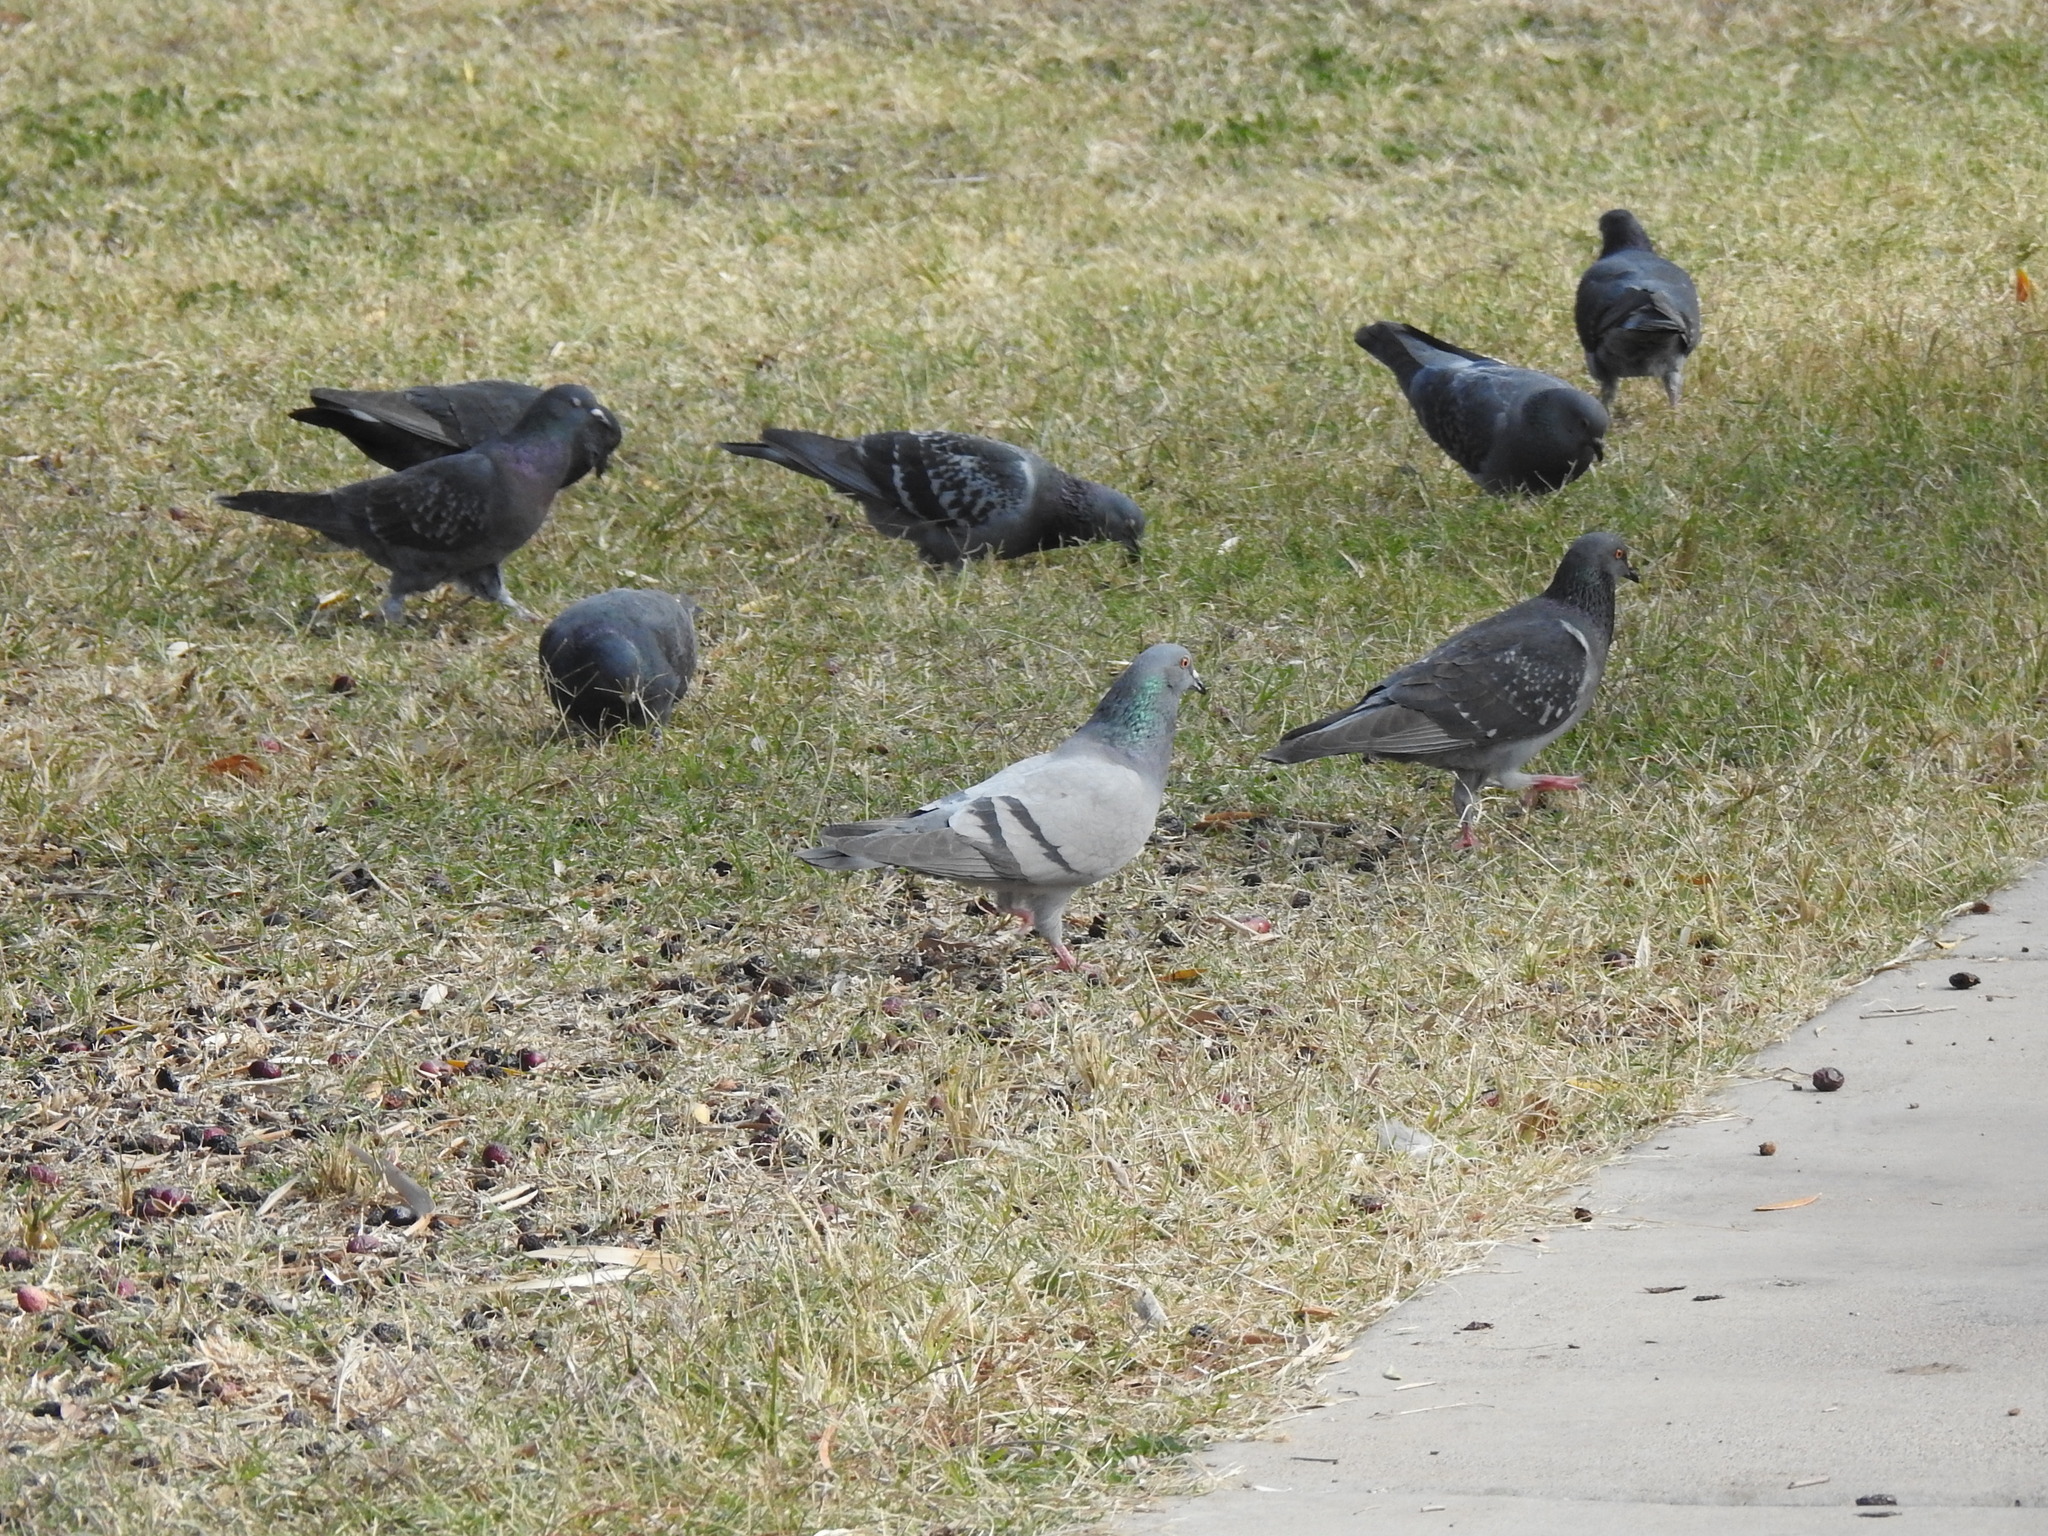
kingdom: Animalia
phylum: Chordata
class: Aves
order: Columbiformes
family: Columbidae
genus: Columba
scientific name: Columba livia
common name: Rock pigeon
